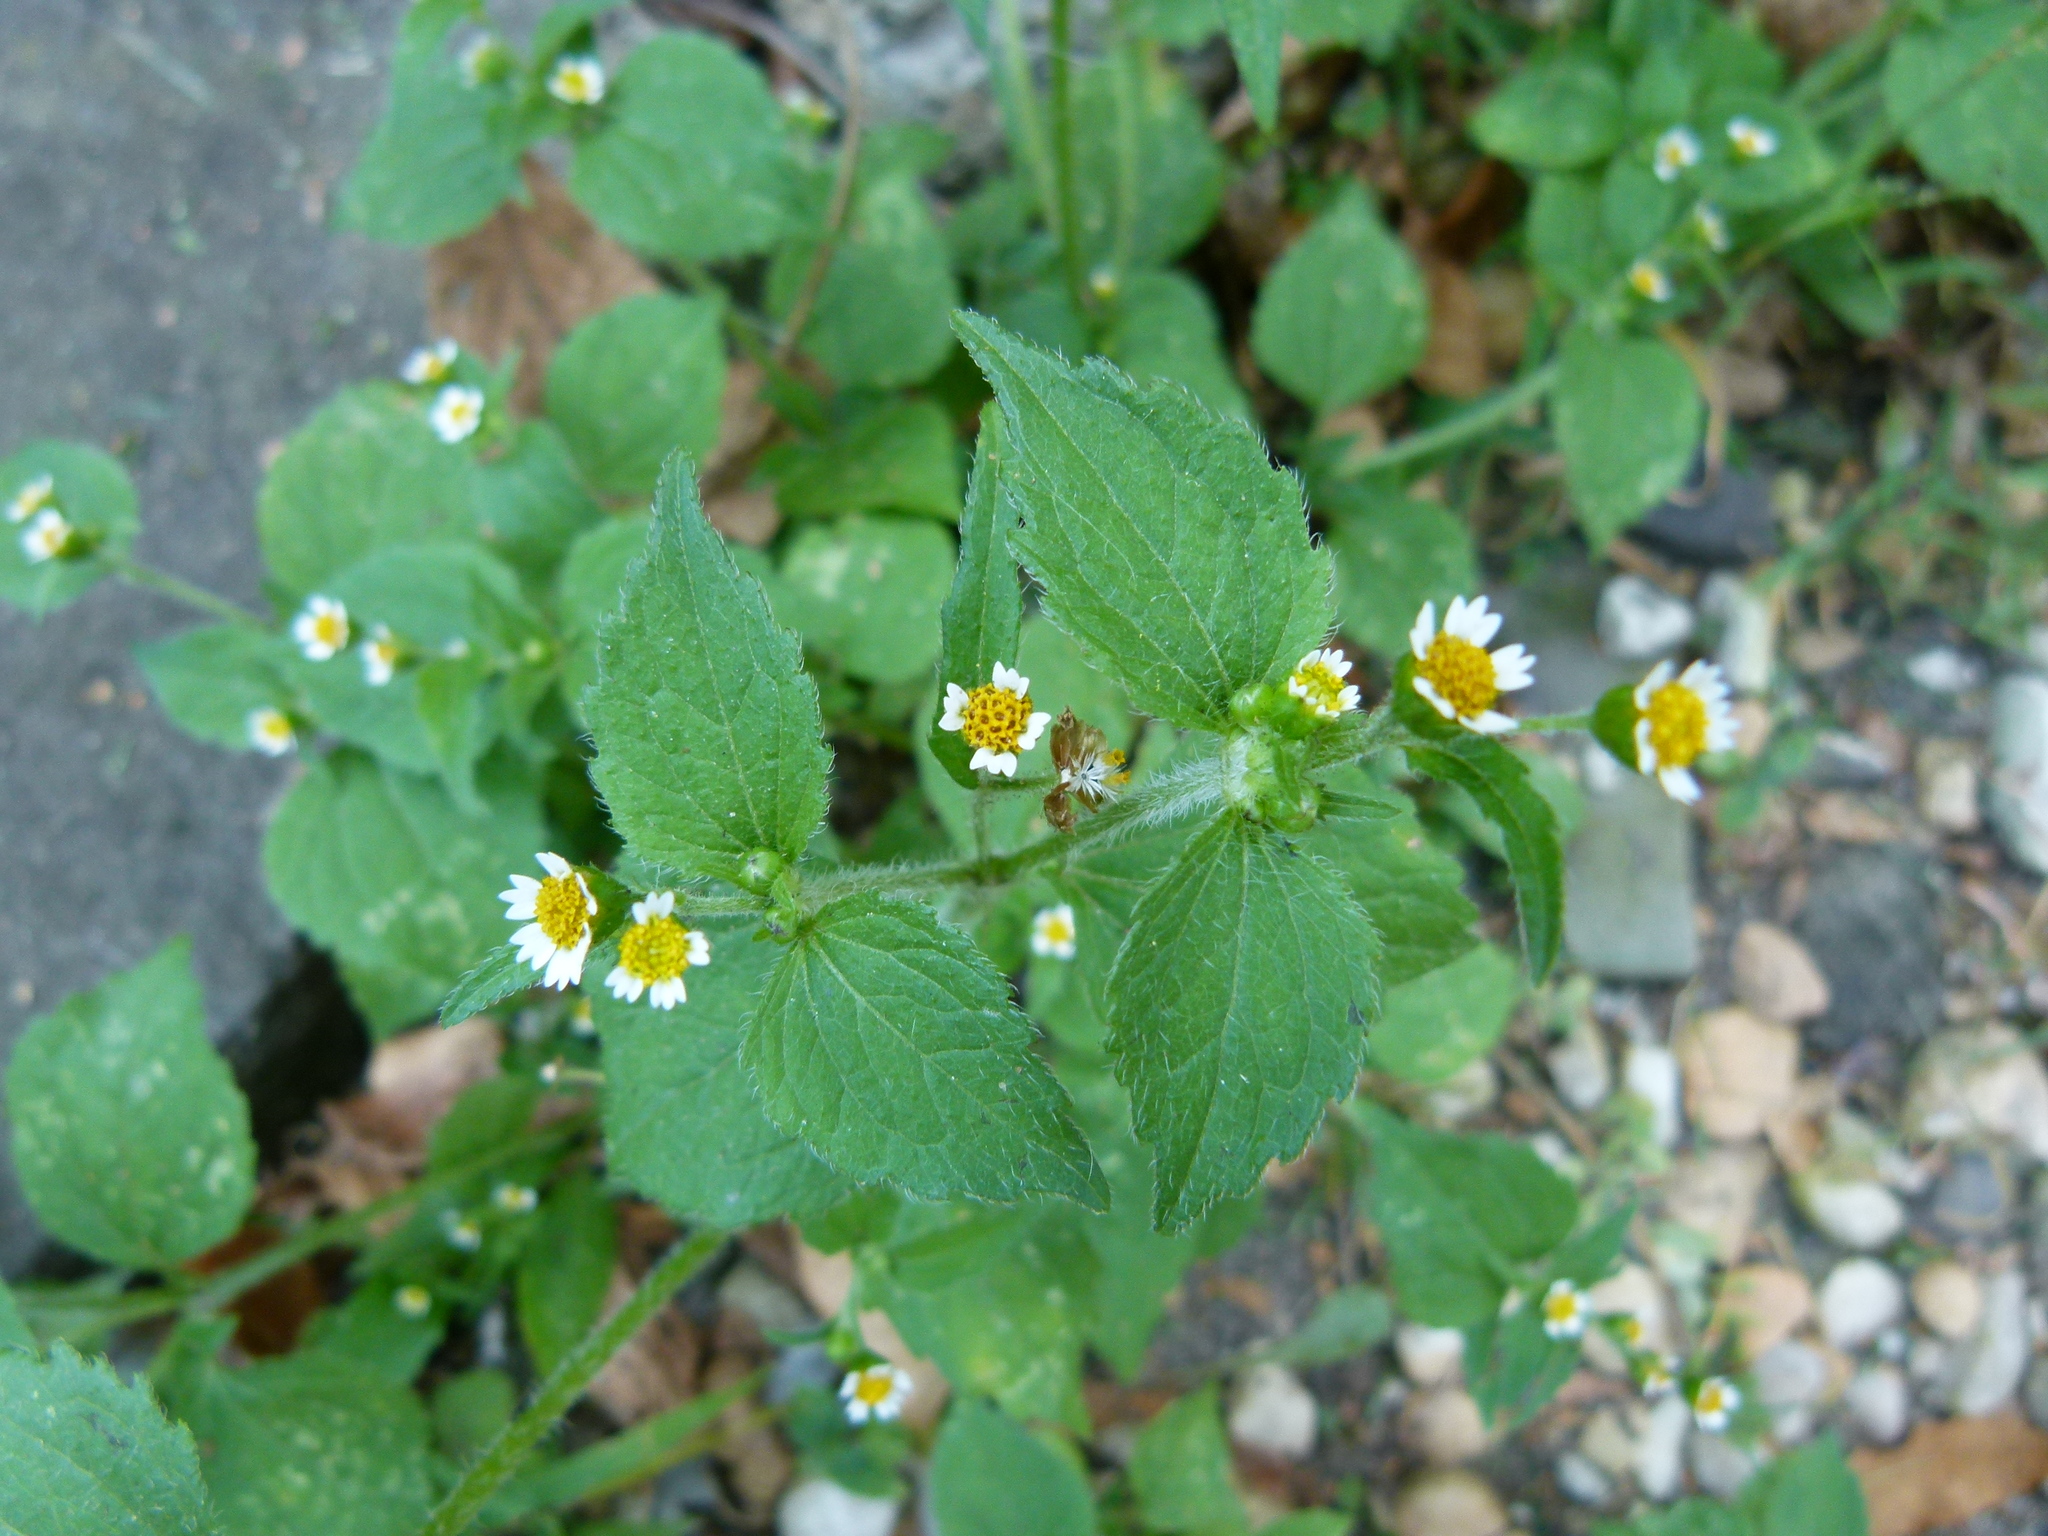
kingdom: Plantae
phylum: Tracheophyta
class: Magnoliopsida
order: Asterales
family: Asteraceae
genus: Galinsoga
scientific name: Galinsoga quadriradiata
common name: Shaggy soldier
